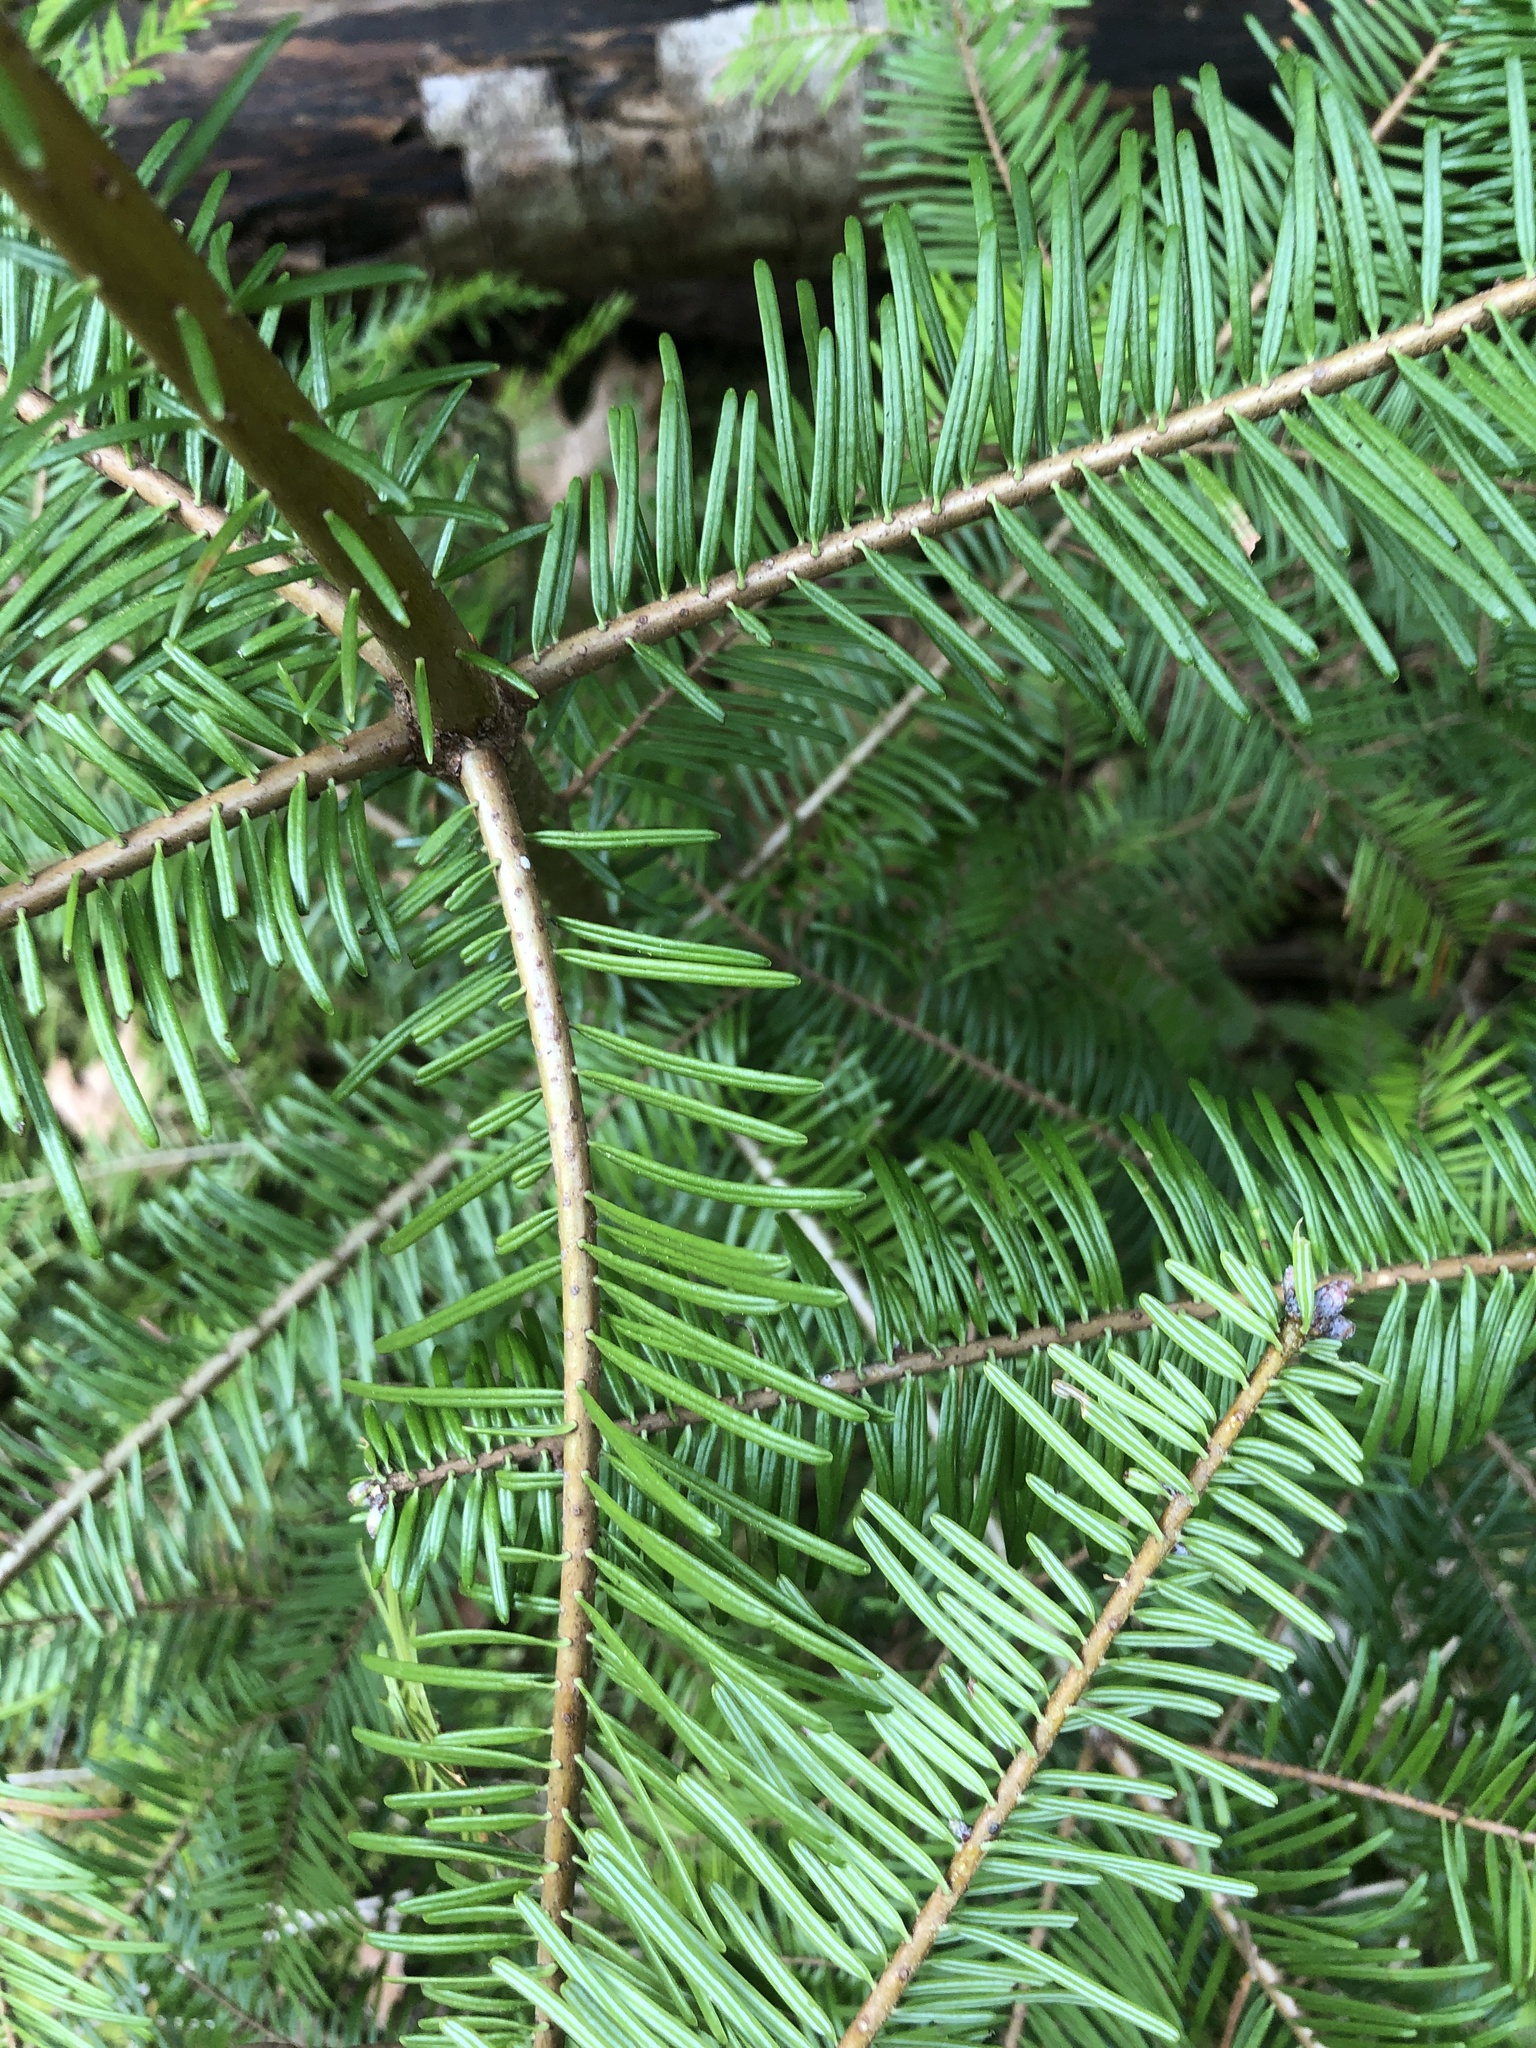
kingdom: Plantae
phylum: Tracheophyta
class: Pinopsida
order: Pinales
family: Pinaceae
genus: Abies
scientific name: Abies grandis
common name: Giant fir
